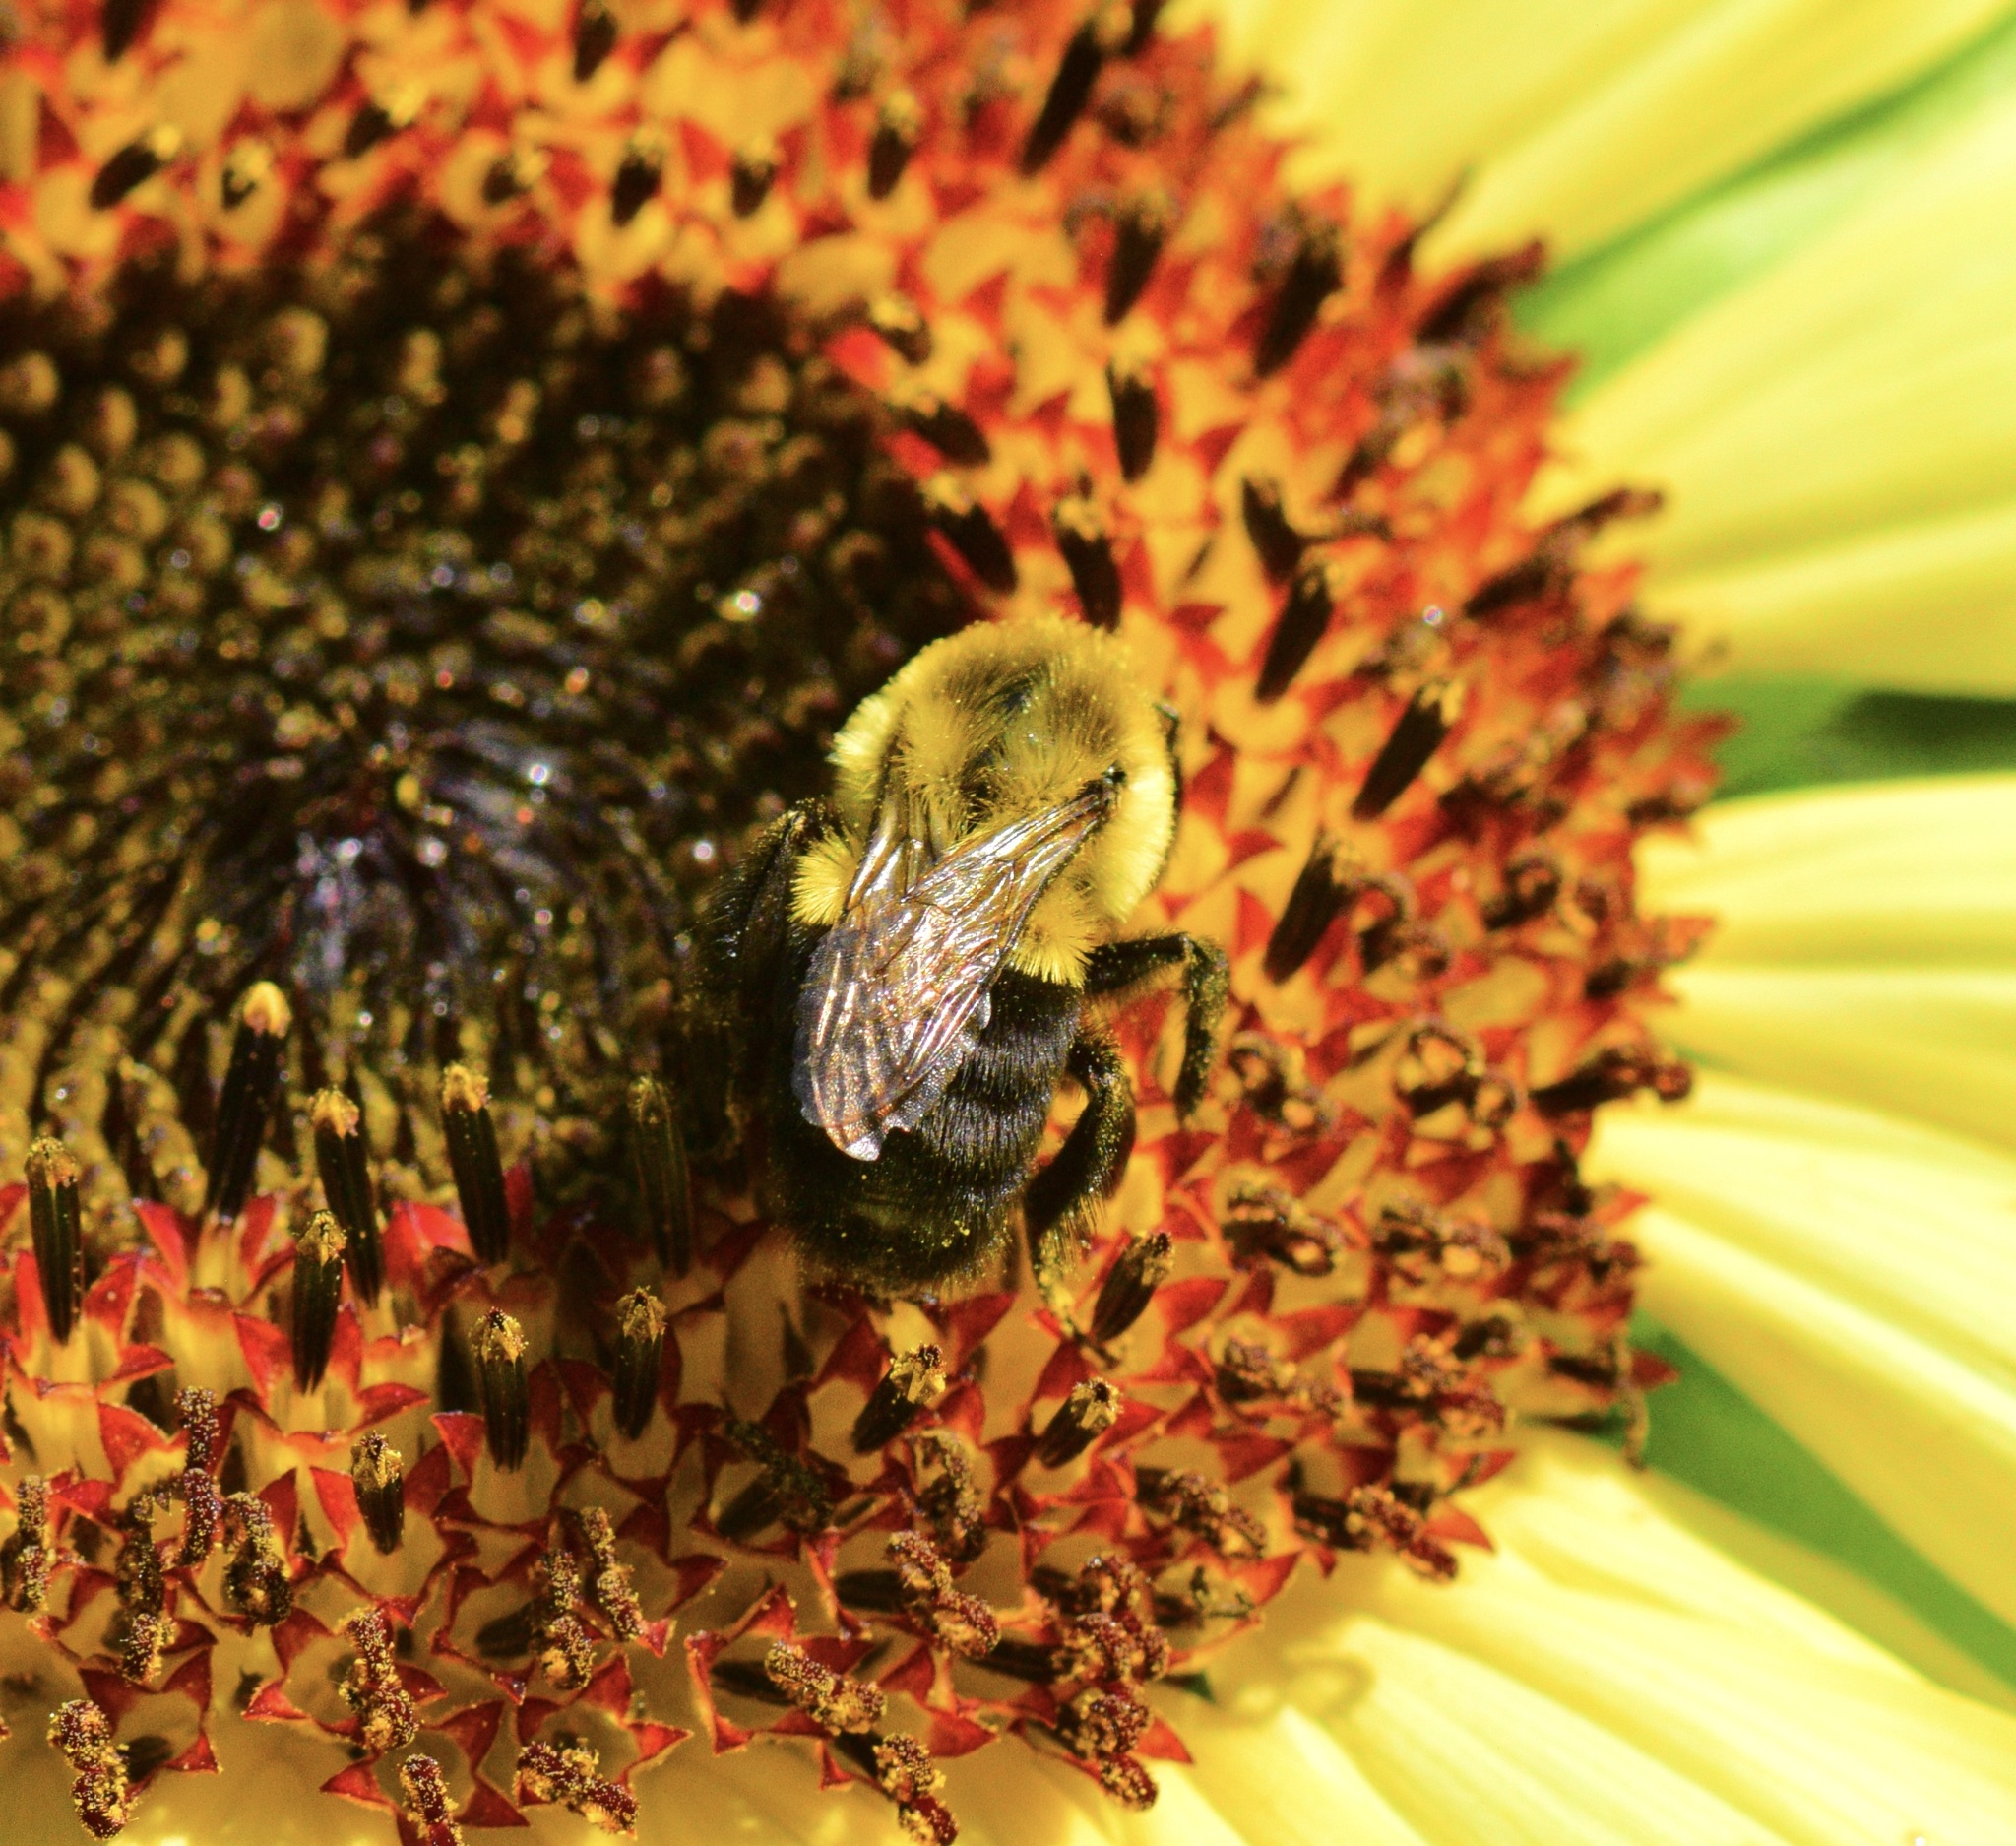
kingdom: Animalia
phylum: Arthropoda
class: Insecta
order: Hymenoptera
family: Apidae
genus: Bombus
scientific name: Bombus impatiens
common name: Common eastern bumble bee
